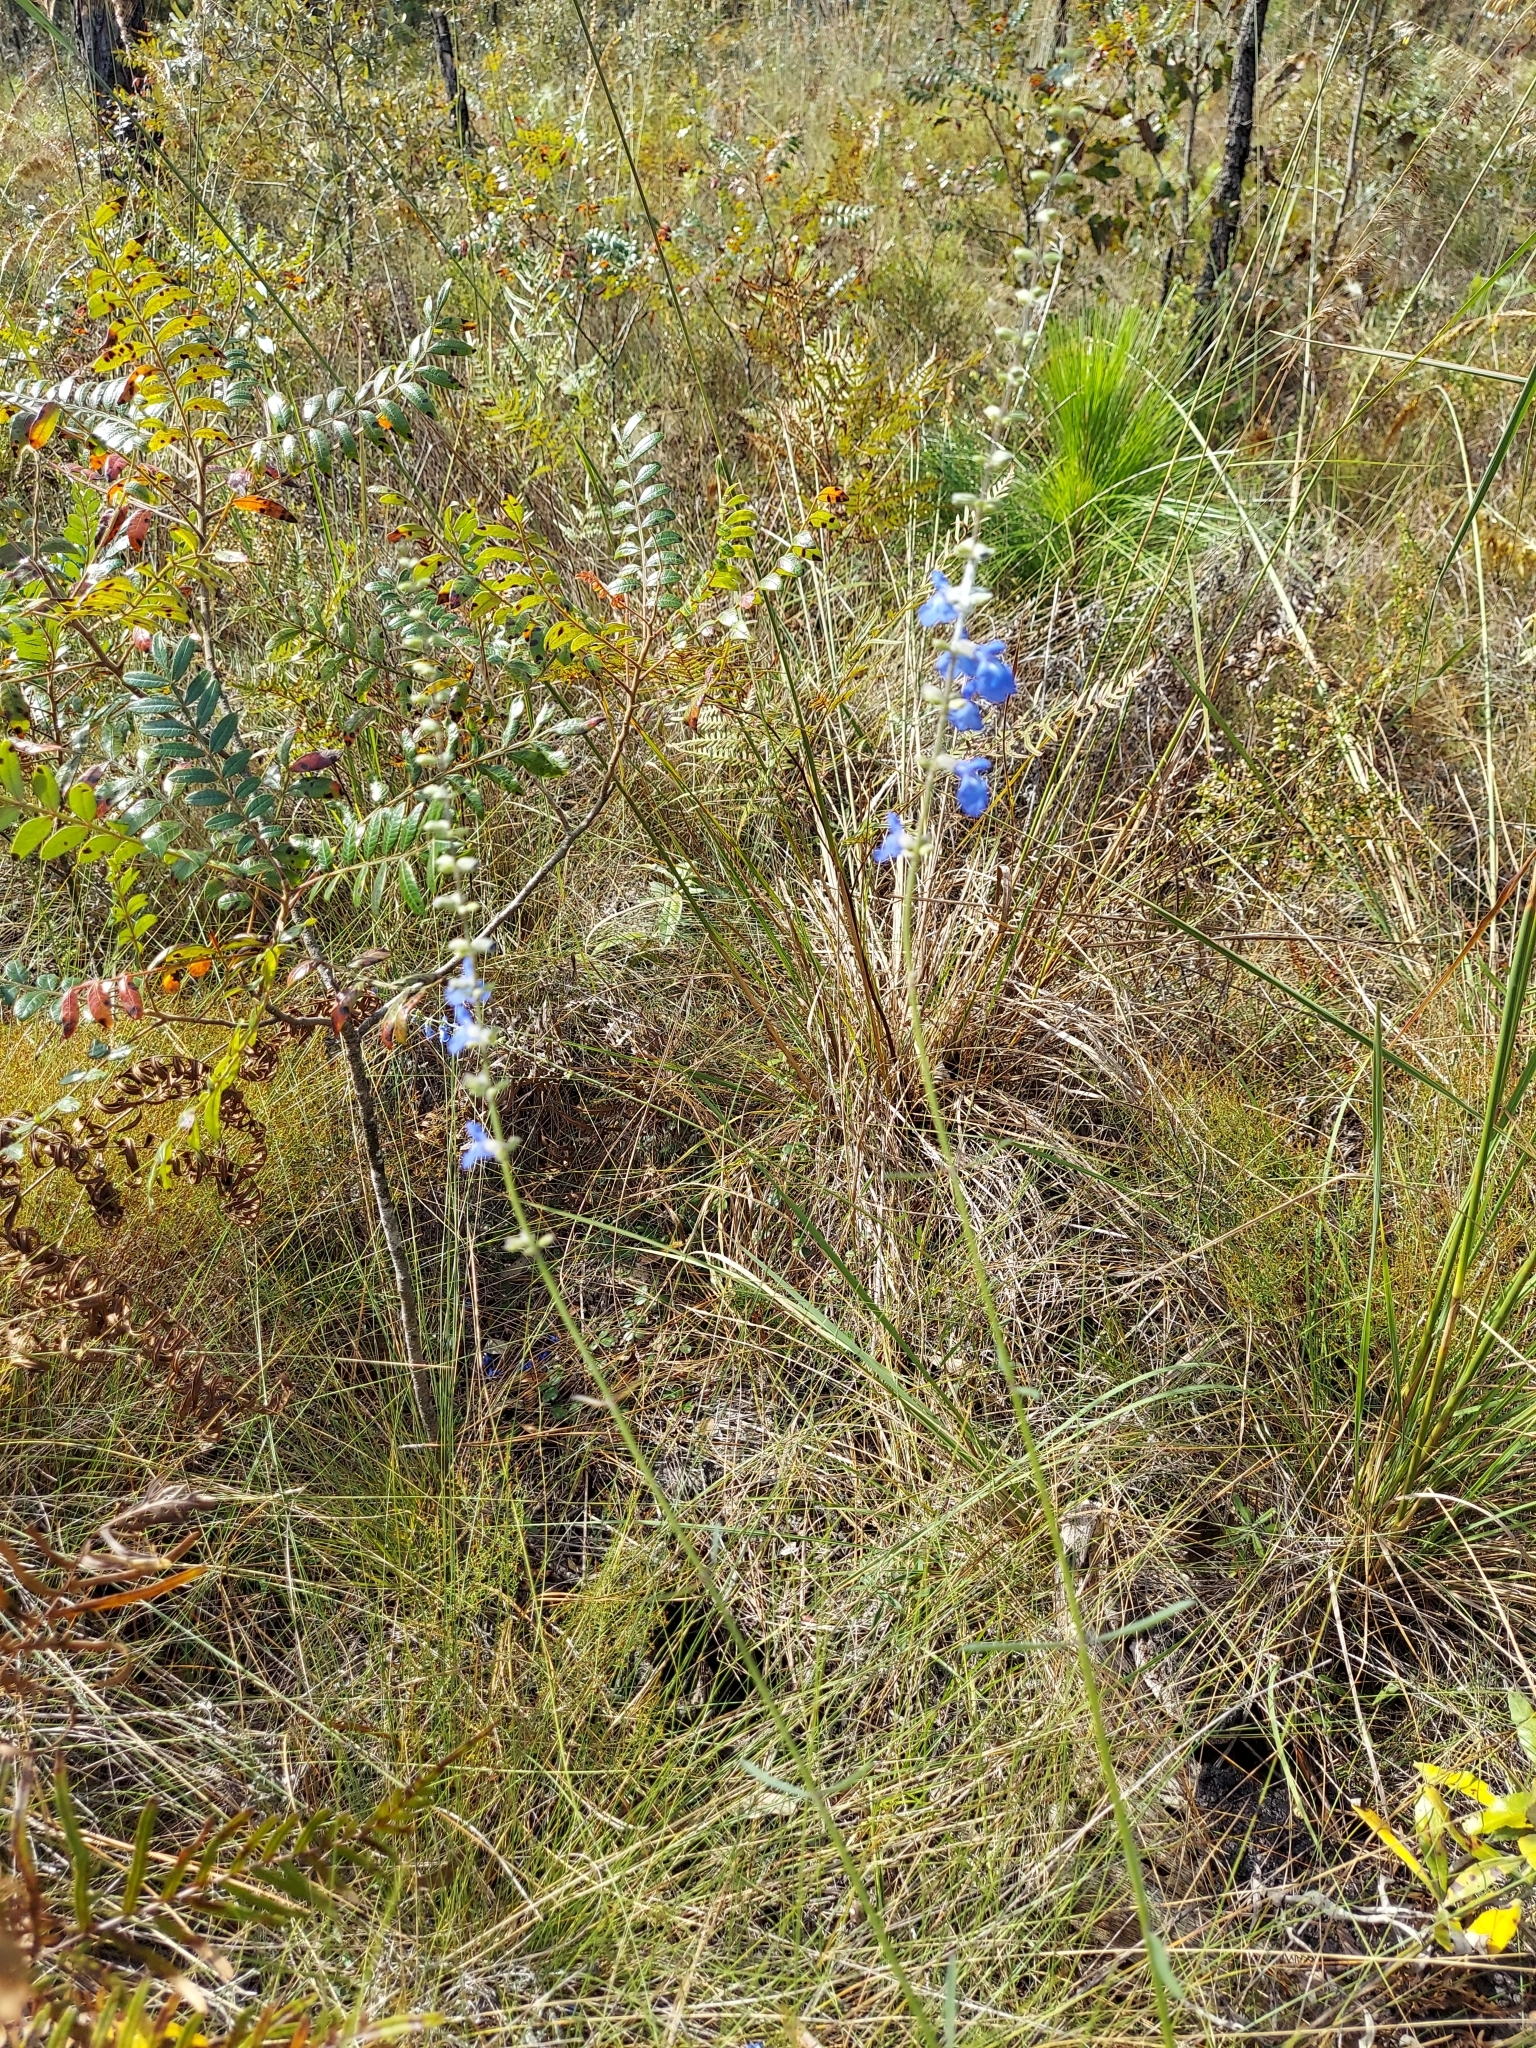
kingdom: Plantae
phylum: Tracheophyta
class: Magnoliopsida
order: Lamiales
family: Lamiaceae
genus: Salvia
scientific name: Salvia azurea
